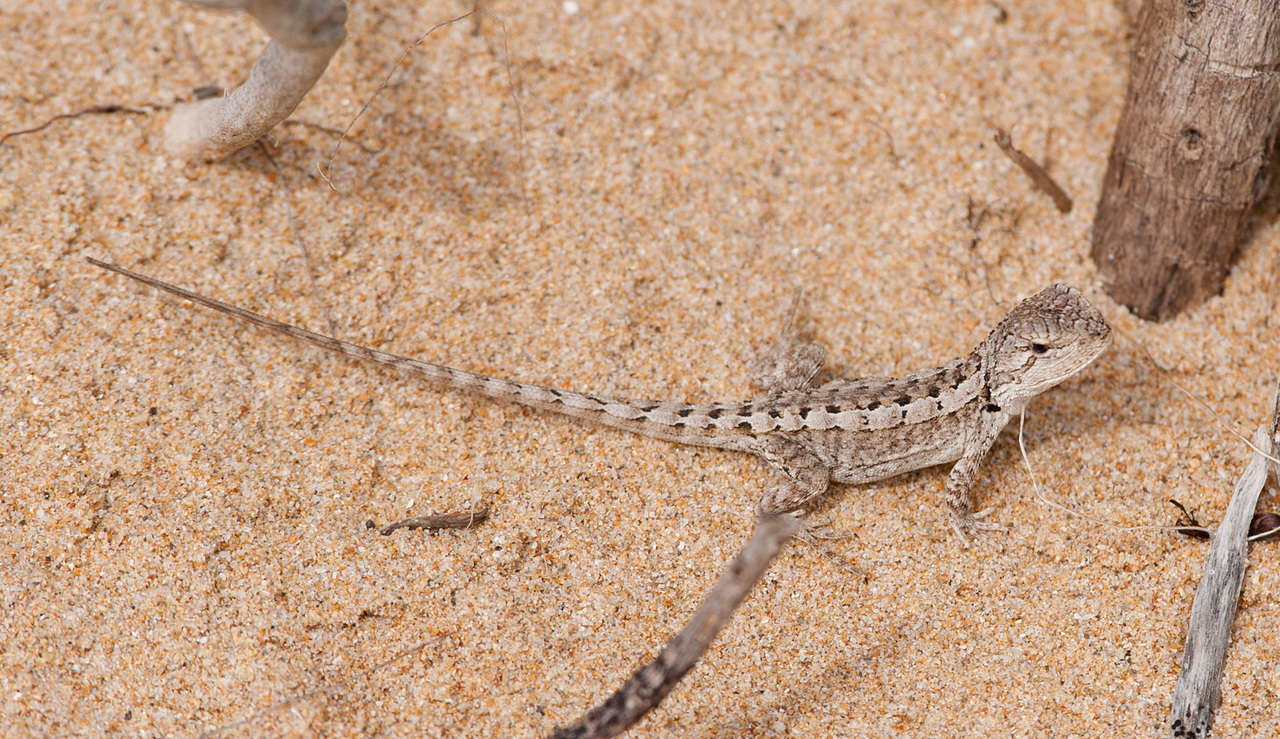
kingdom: Animalia
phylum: Chordata
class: Squamata
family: Agamidae
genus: Amphibolurus
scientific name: Amphibolurus muricatus
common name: Jacky lizard
